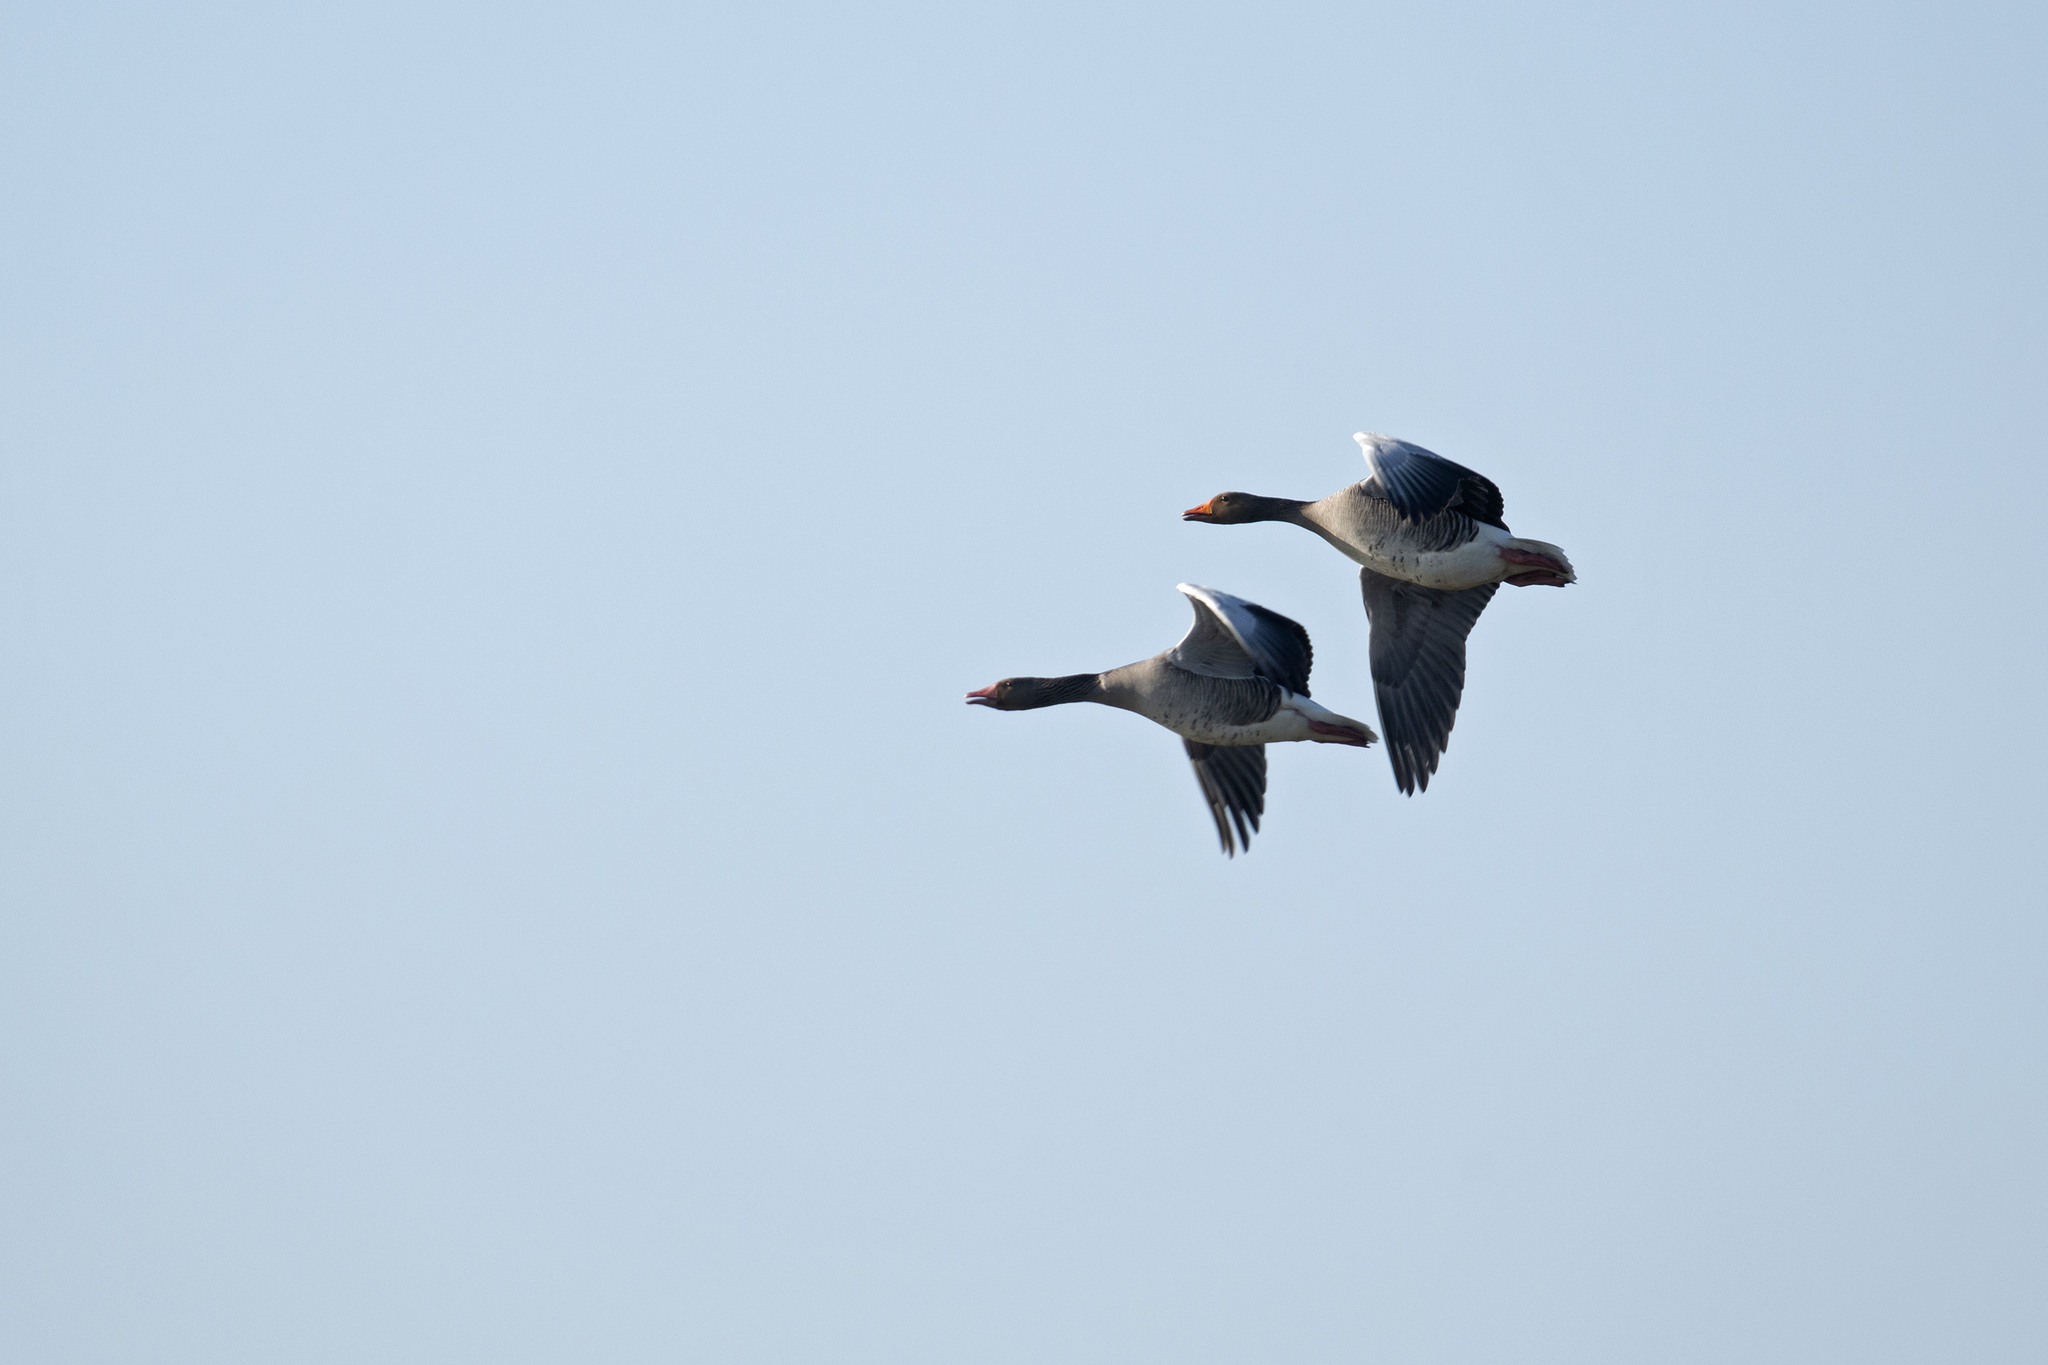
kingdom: Animalia
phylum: Chordata
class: Aves
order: Anseriformes
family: Anatidae
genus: Anser
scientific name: Anser anser
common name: Greylag goose
